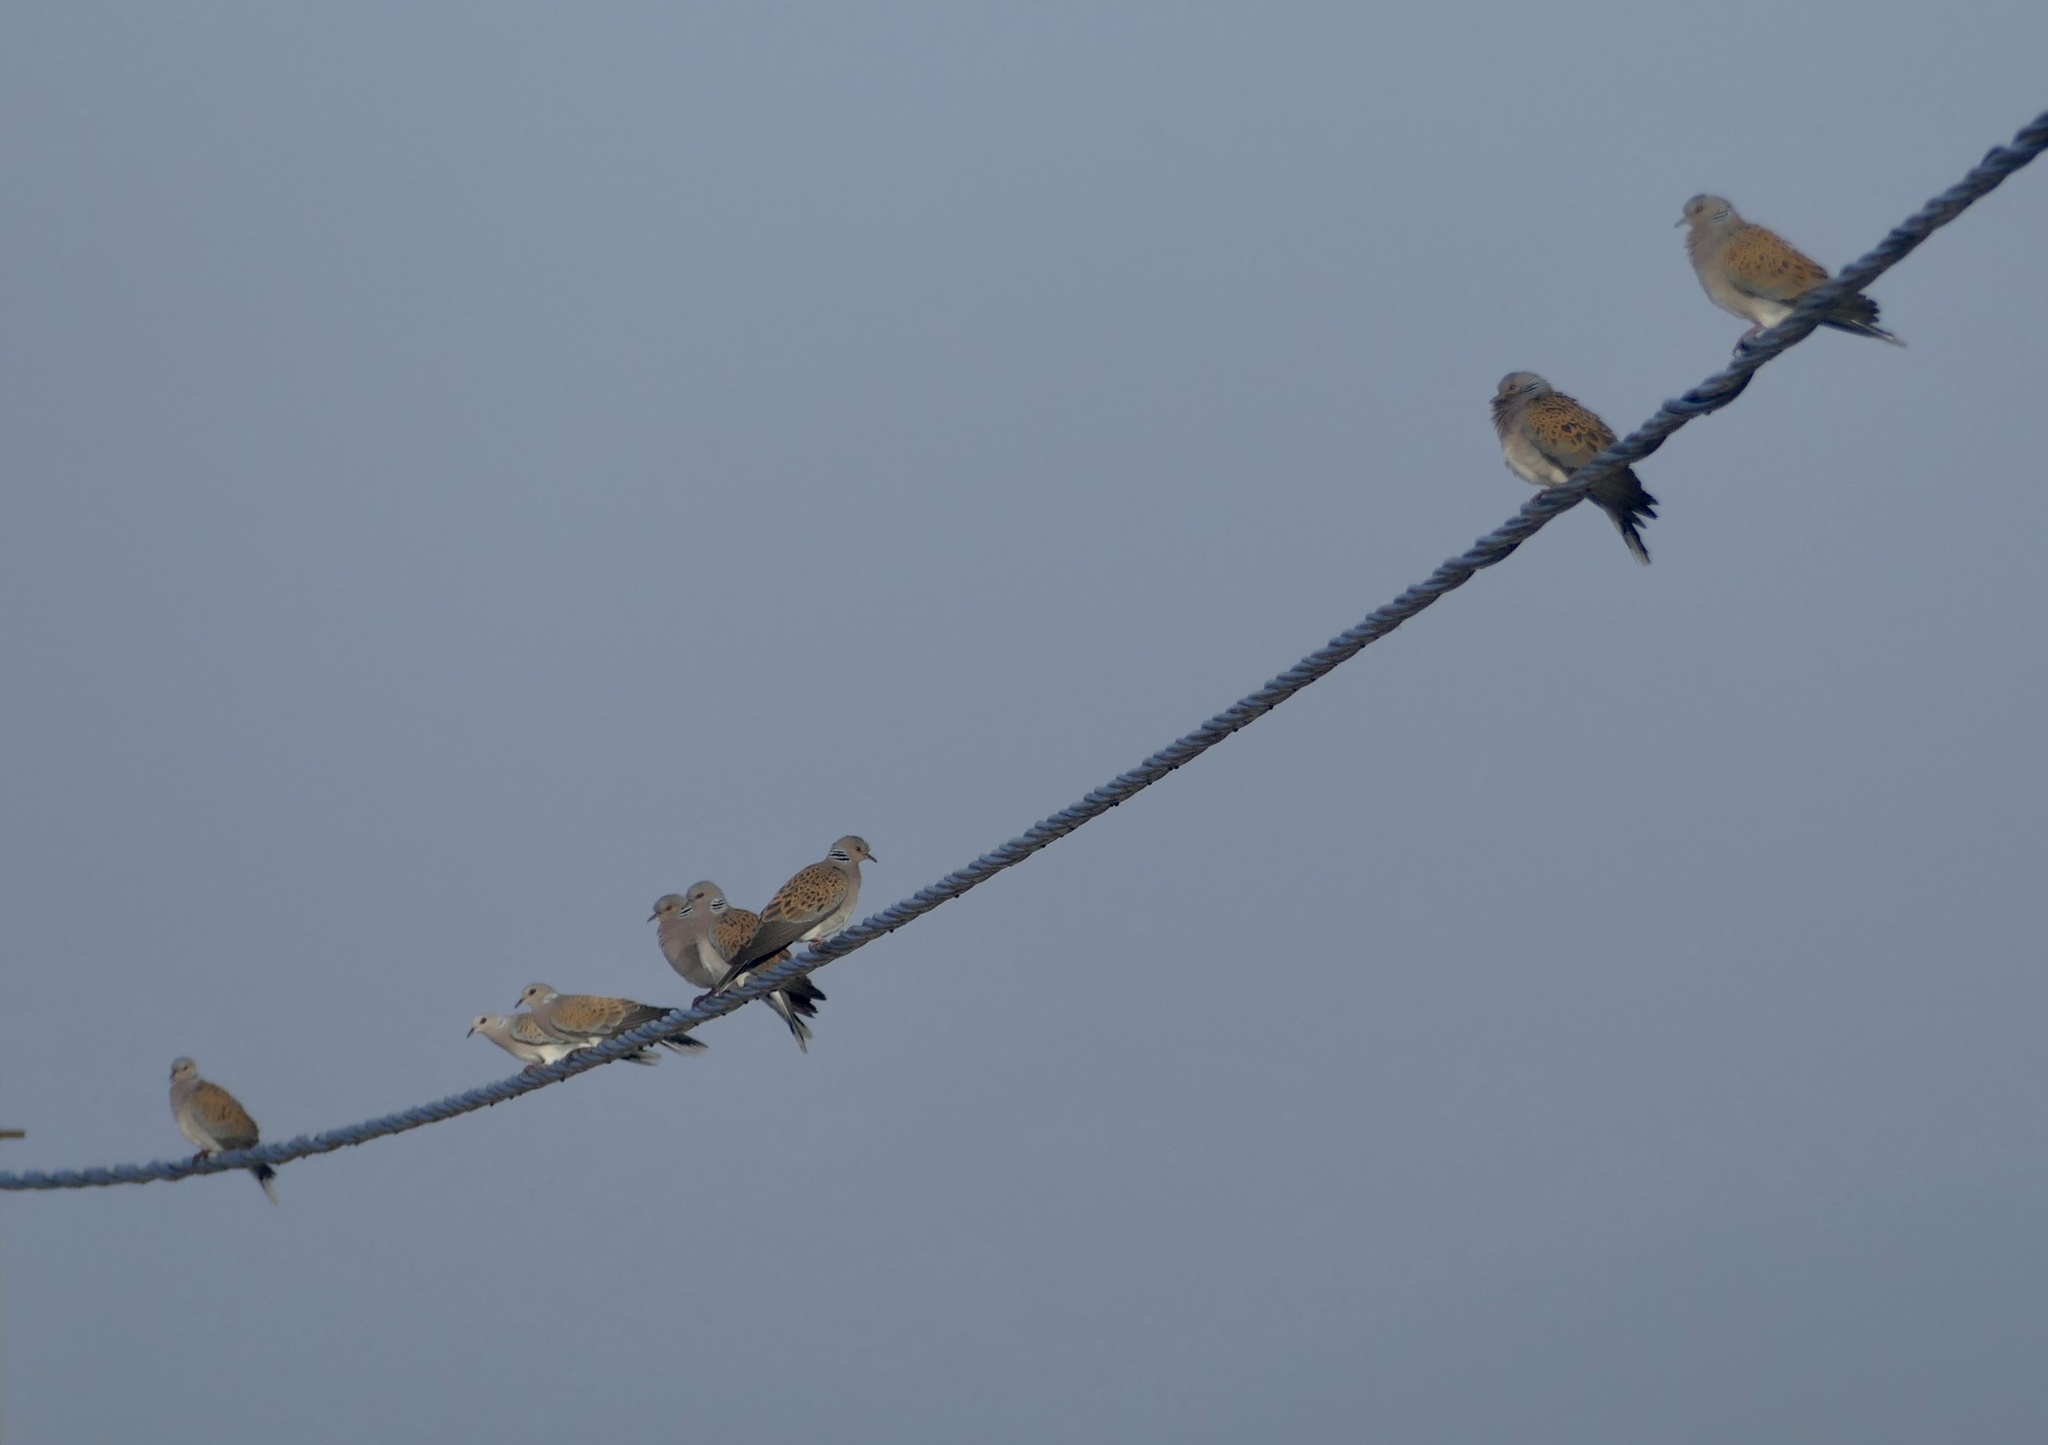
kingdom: Animalia
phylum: Chordata
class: Aves
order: Columbiformes
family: Columbidae
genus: Streptopelia
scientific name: Streptopelia turtur
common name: European turtle dove
